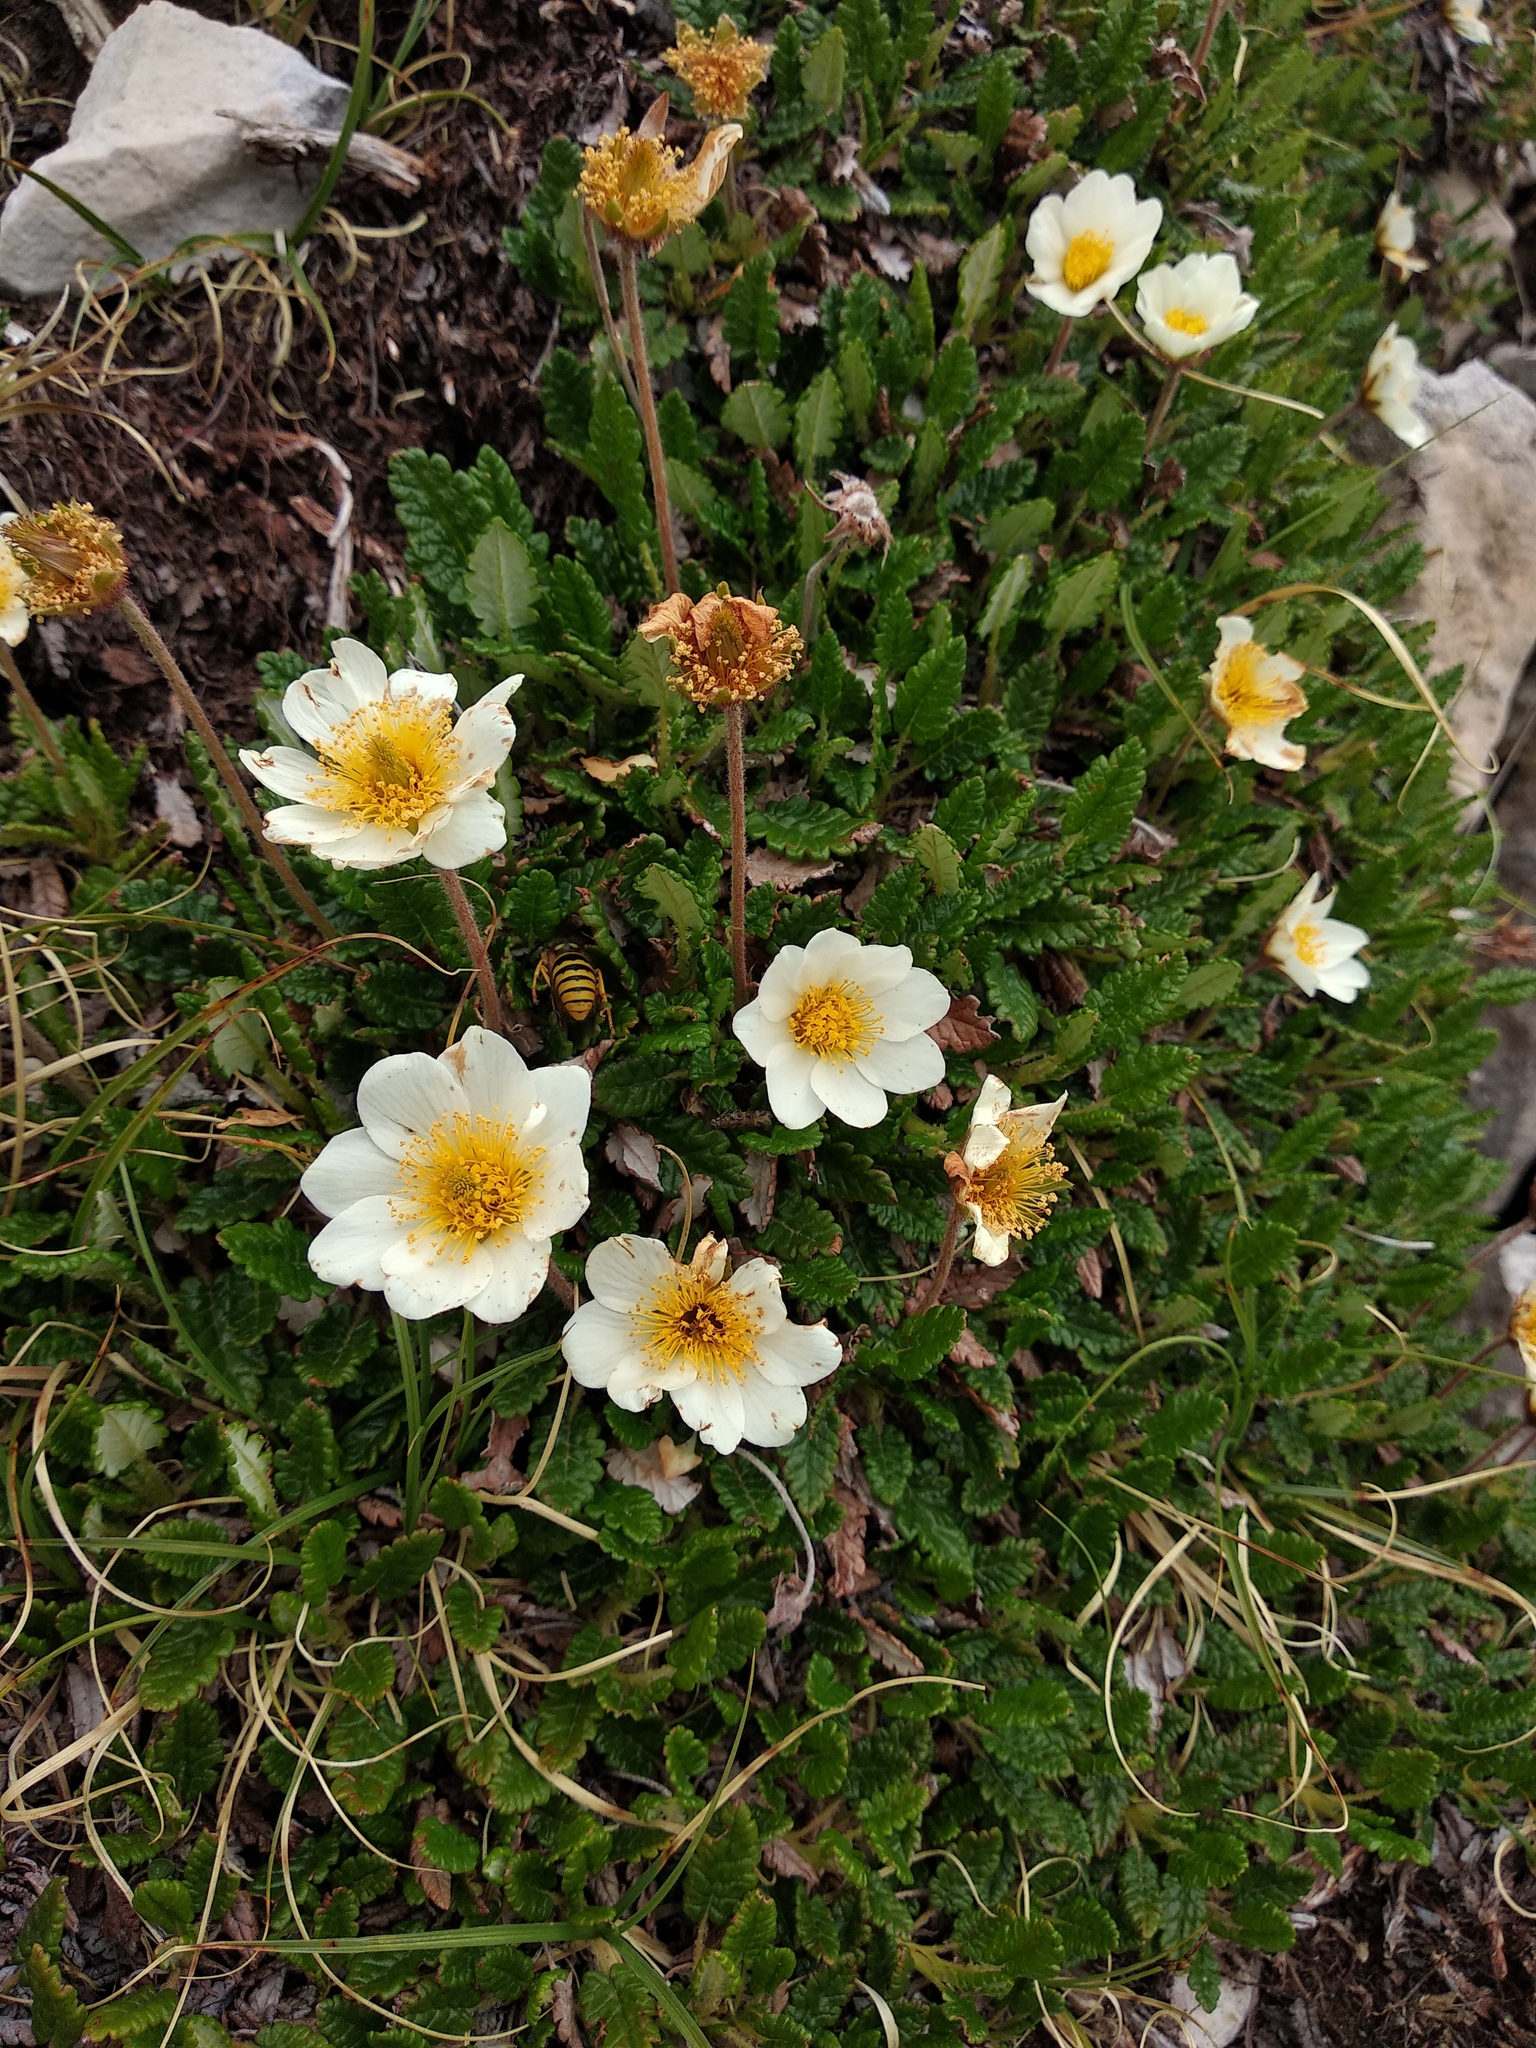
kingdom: Plantae
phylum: Tracheophyta
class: Magnoliopsida
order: Rosales
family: Rosaceae
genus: Dryas
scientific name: Dryas octopetala
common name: Eight-petal mountain-avens
